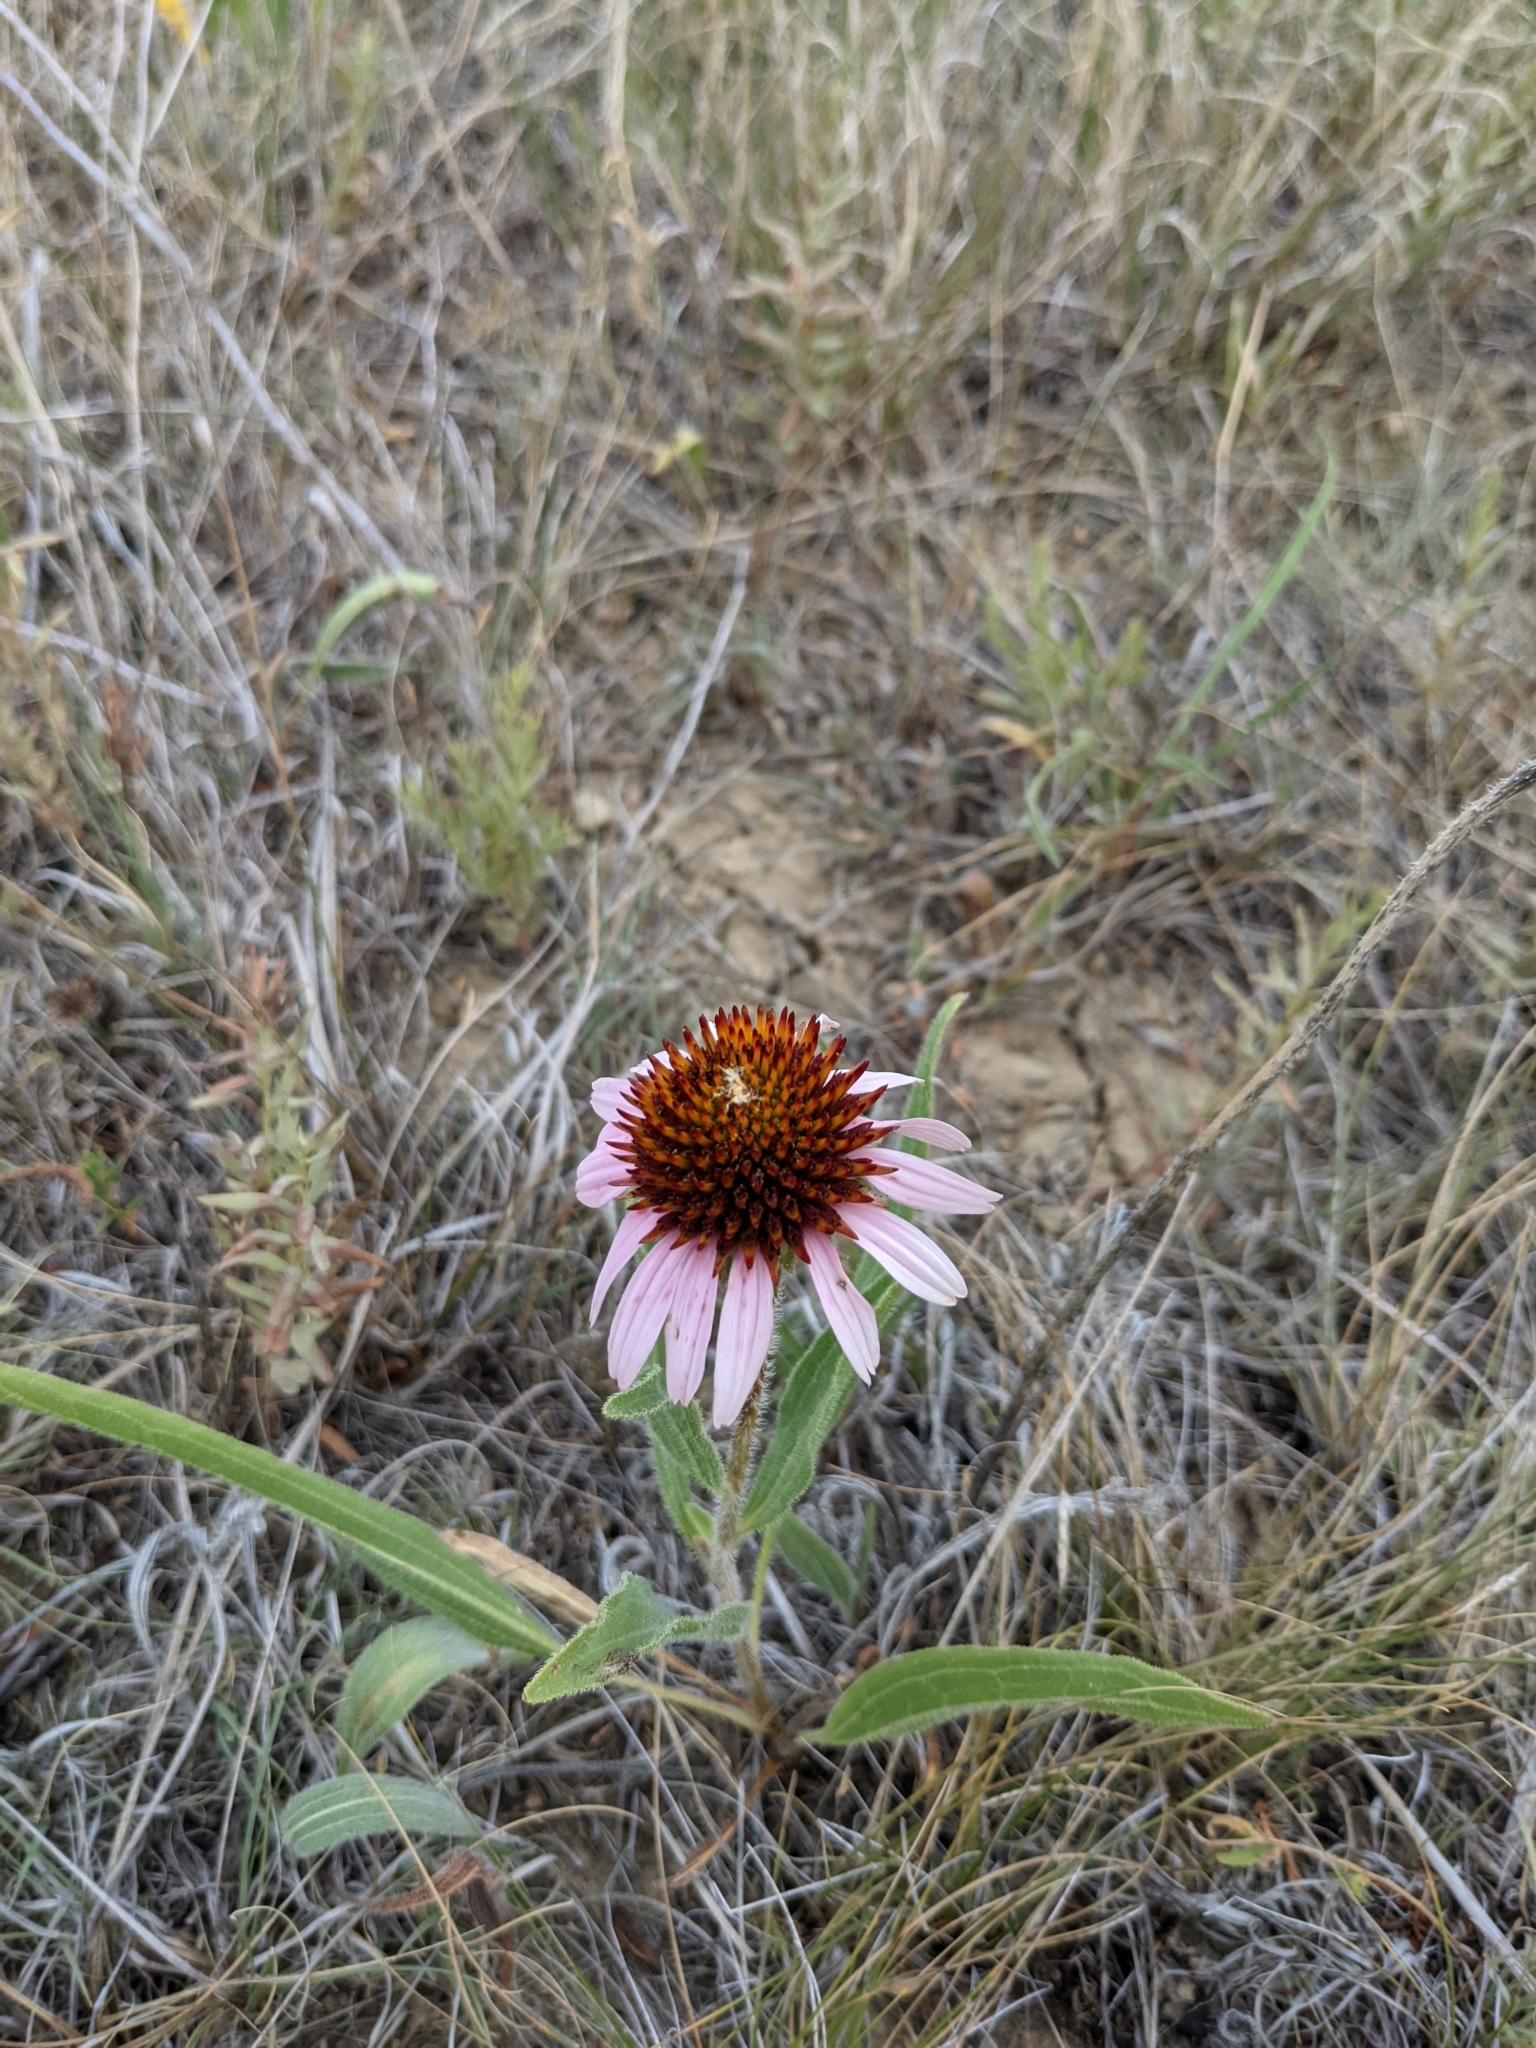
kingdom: Plantae
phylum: Tracheophyta
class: Magnoliopsida
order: Asterales
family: Asteraceae
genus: Echinacea
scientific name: Echinacea angustifolia
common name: Black-sampson echinacea
